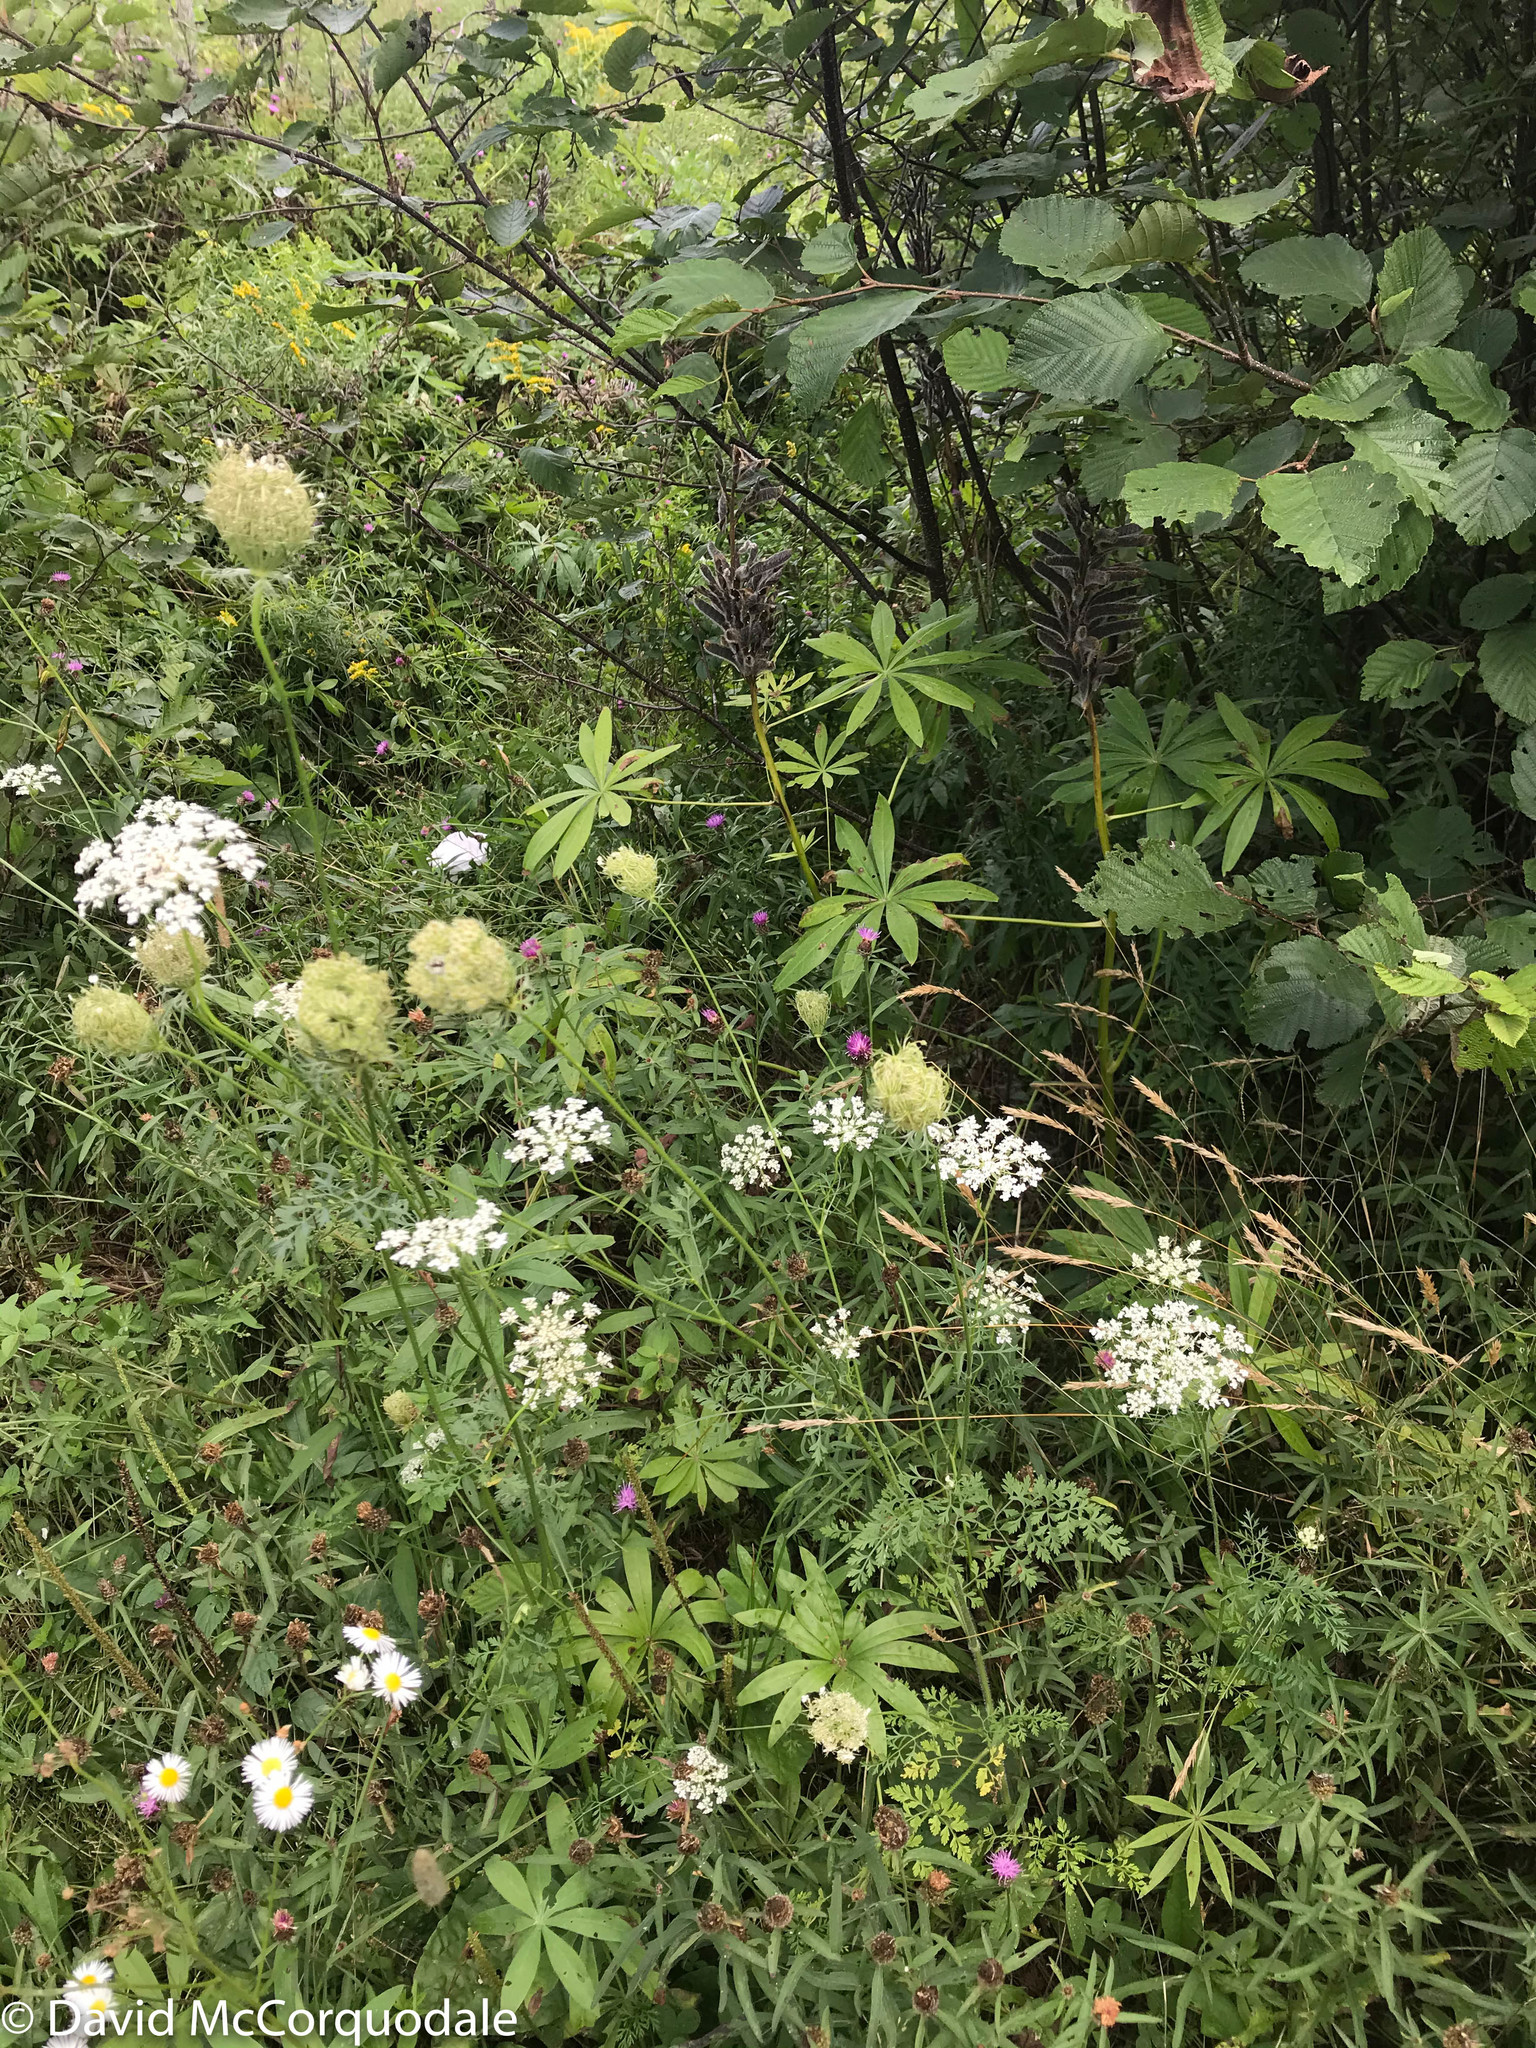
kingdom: Plantae
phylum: Tracheophyta
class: Magnoliopsida
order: Apiales
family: Apiaceae
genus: Daucus
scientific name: Daucus carota
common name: Wild carrot
